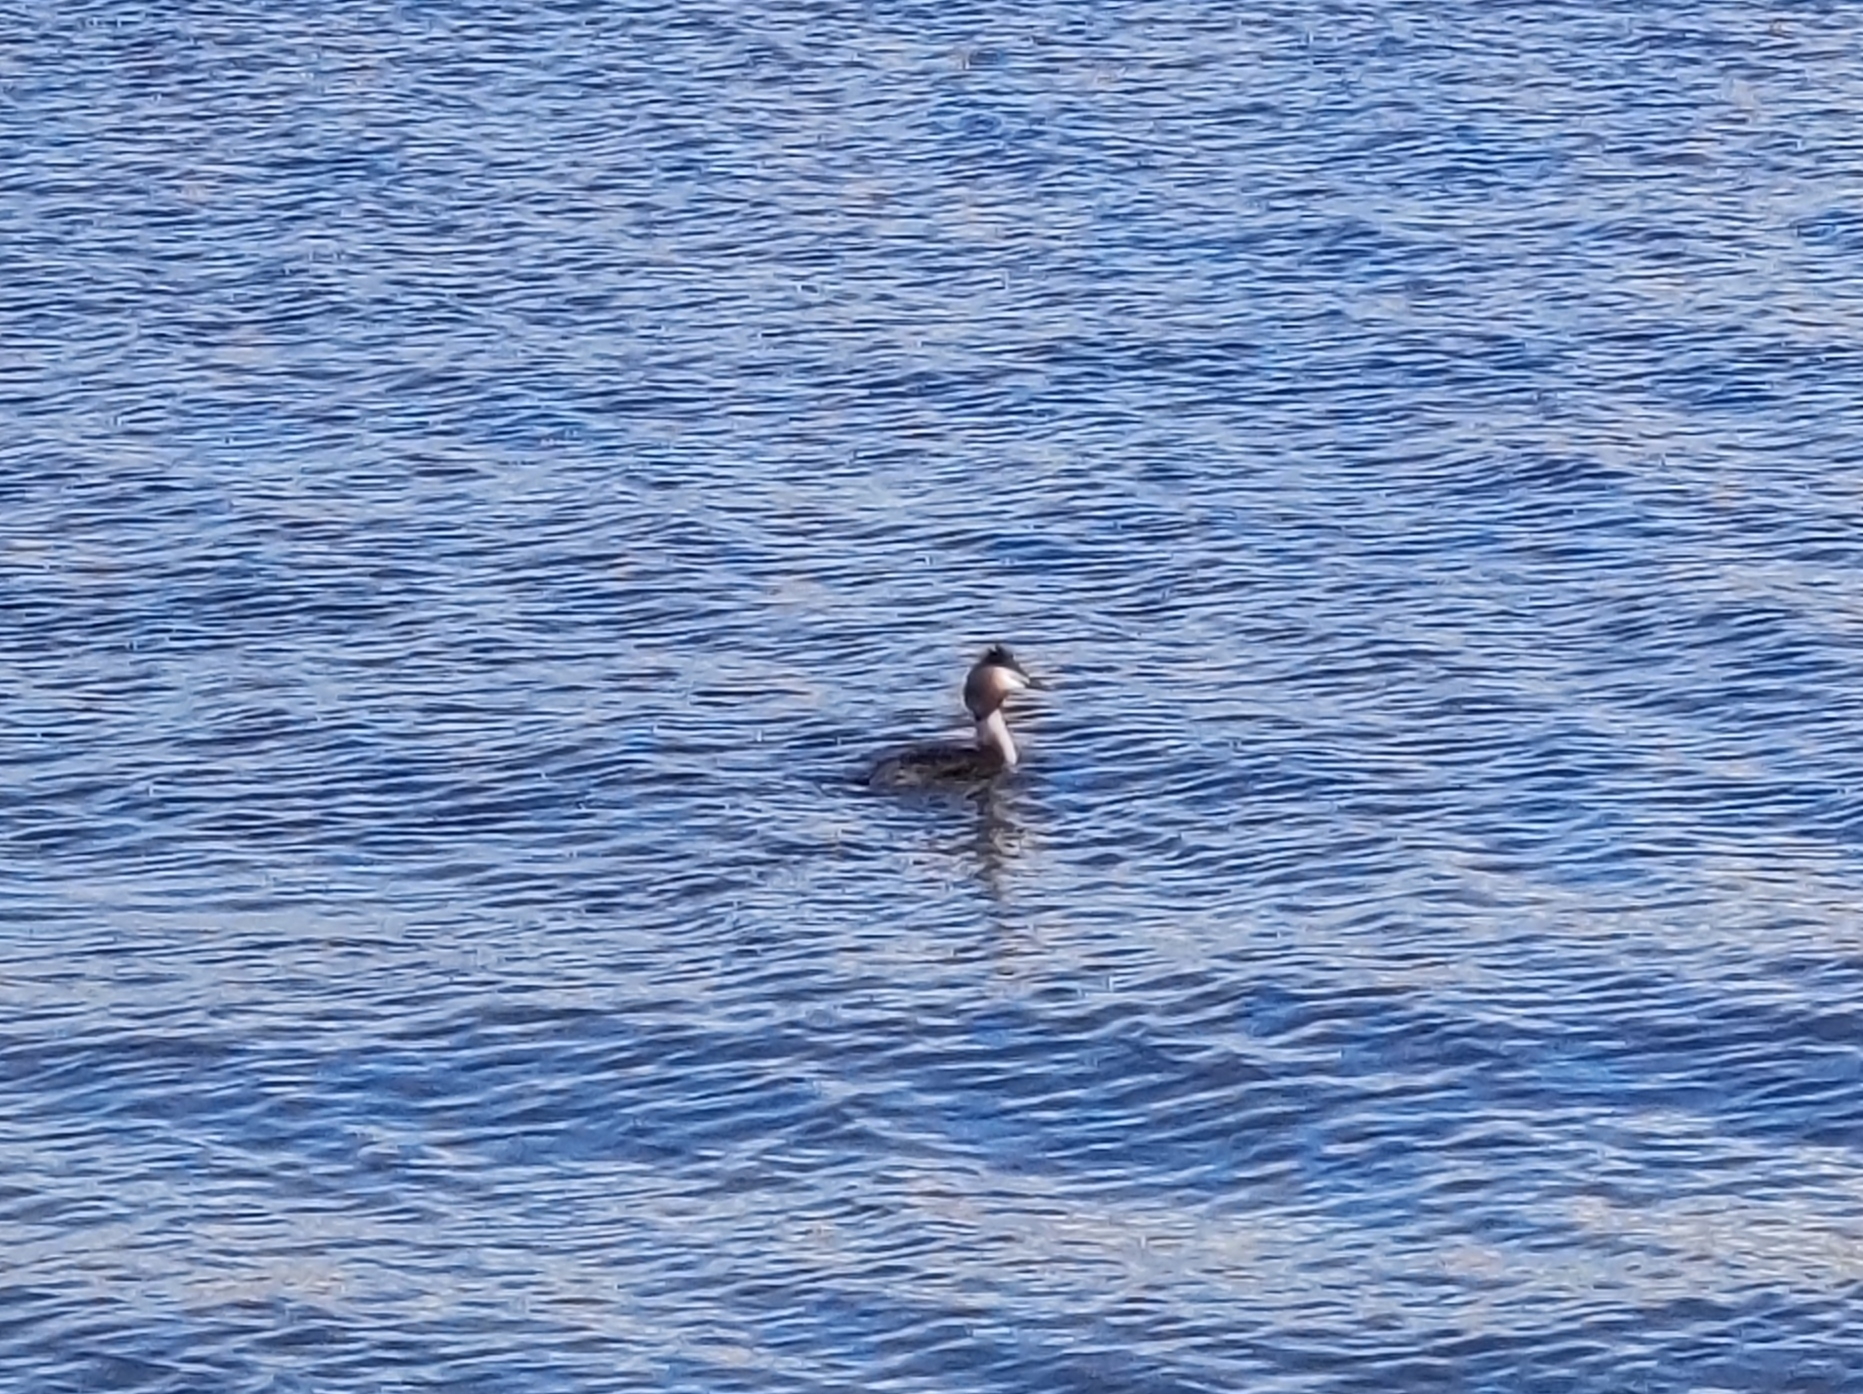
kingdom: Animalia
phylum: Chordata
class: Aves
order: Podicipediformes
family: Podicipedidae
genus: Podiceps
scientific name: Podiceps cristatus
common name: Great crested grebe
